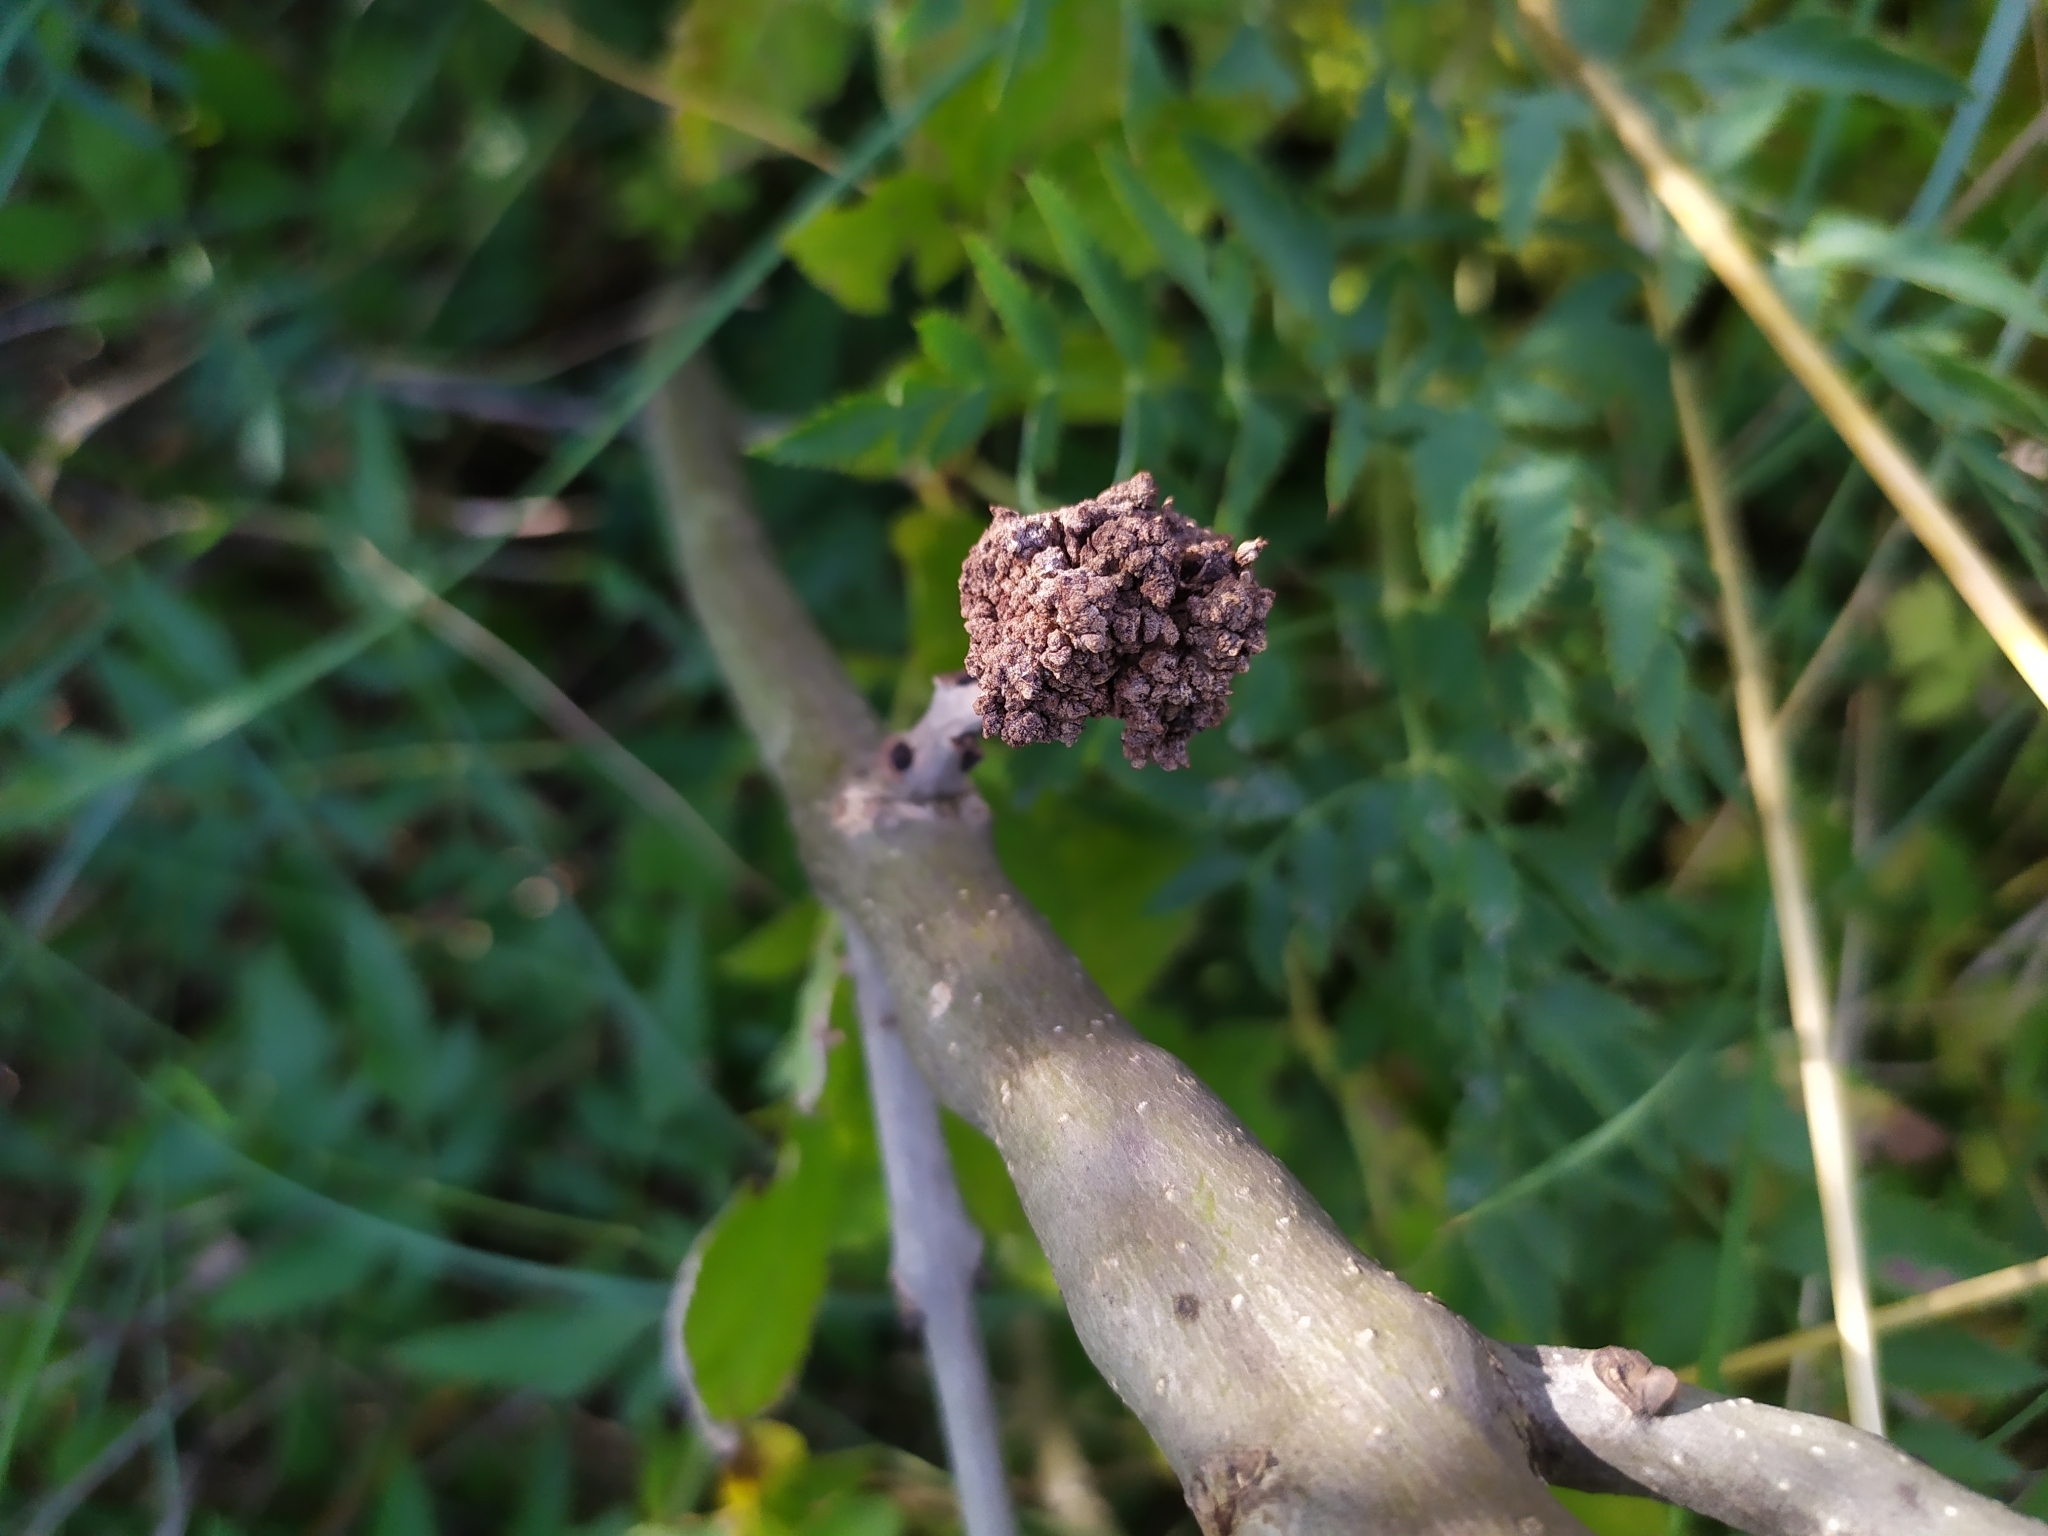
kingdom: Animalia
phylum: Arthropoda
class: Arachnida
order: Trombidiformes
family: Eriophyidae
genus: Aceria
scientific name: Aceria fraxinivora
